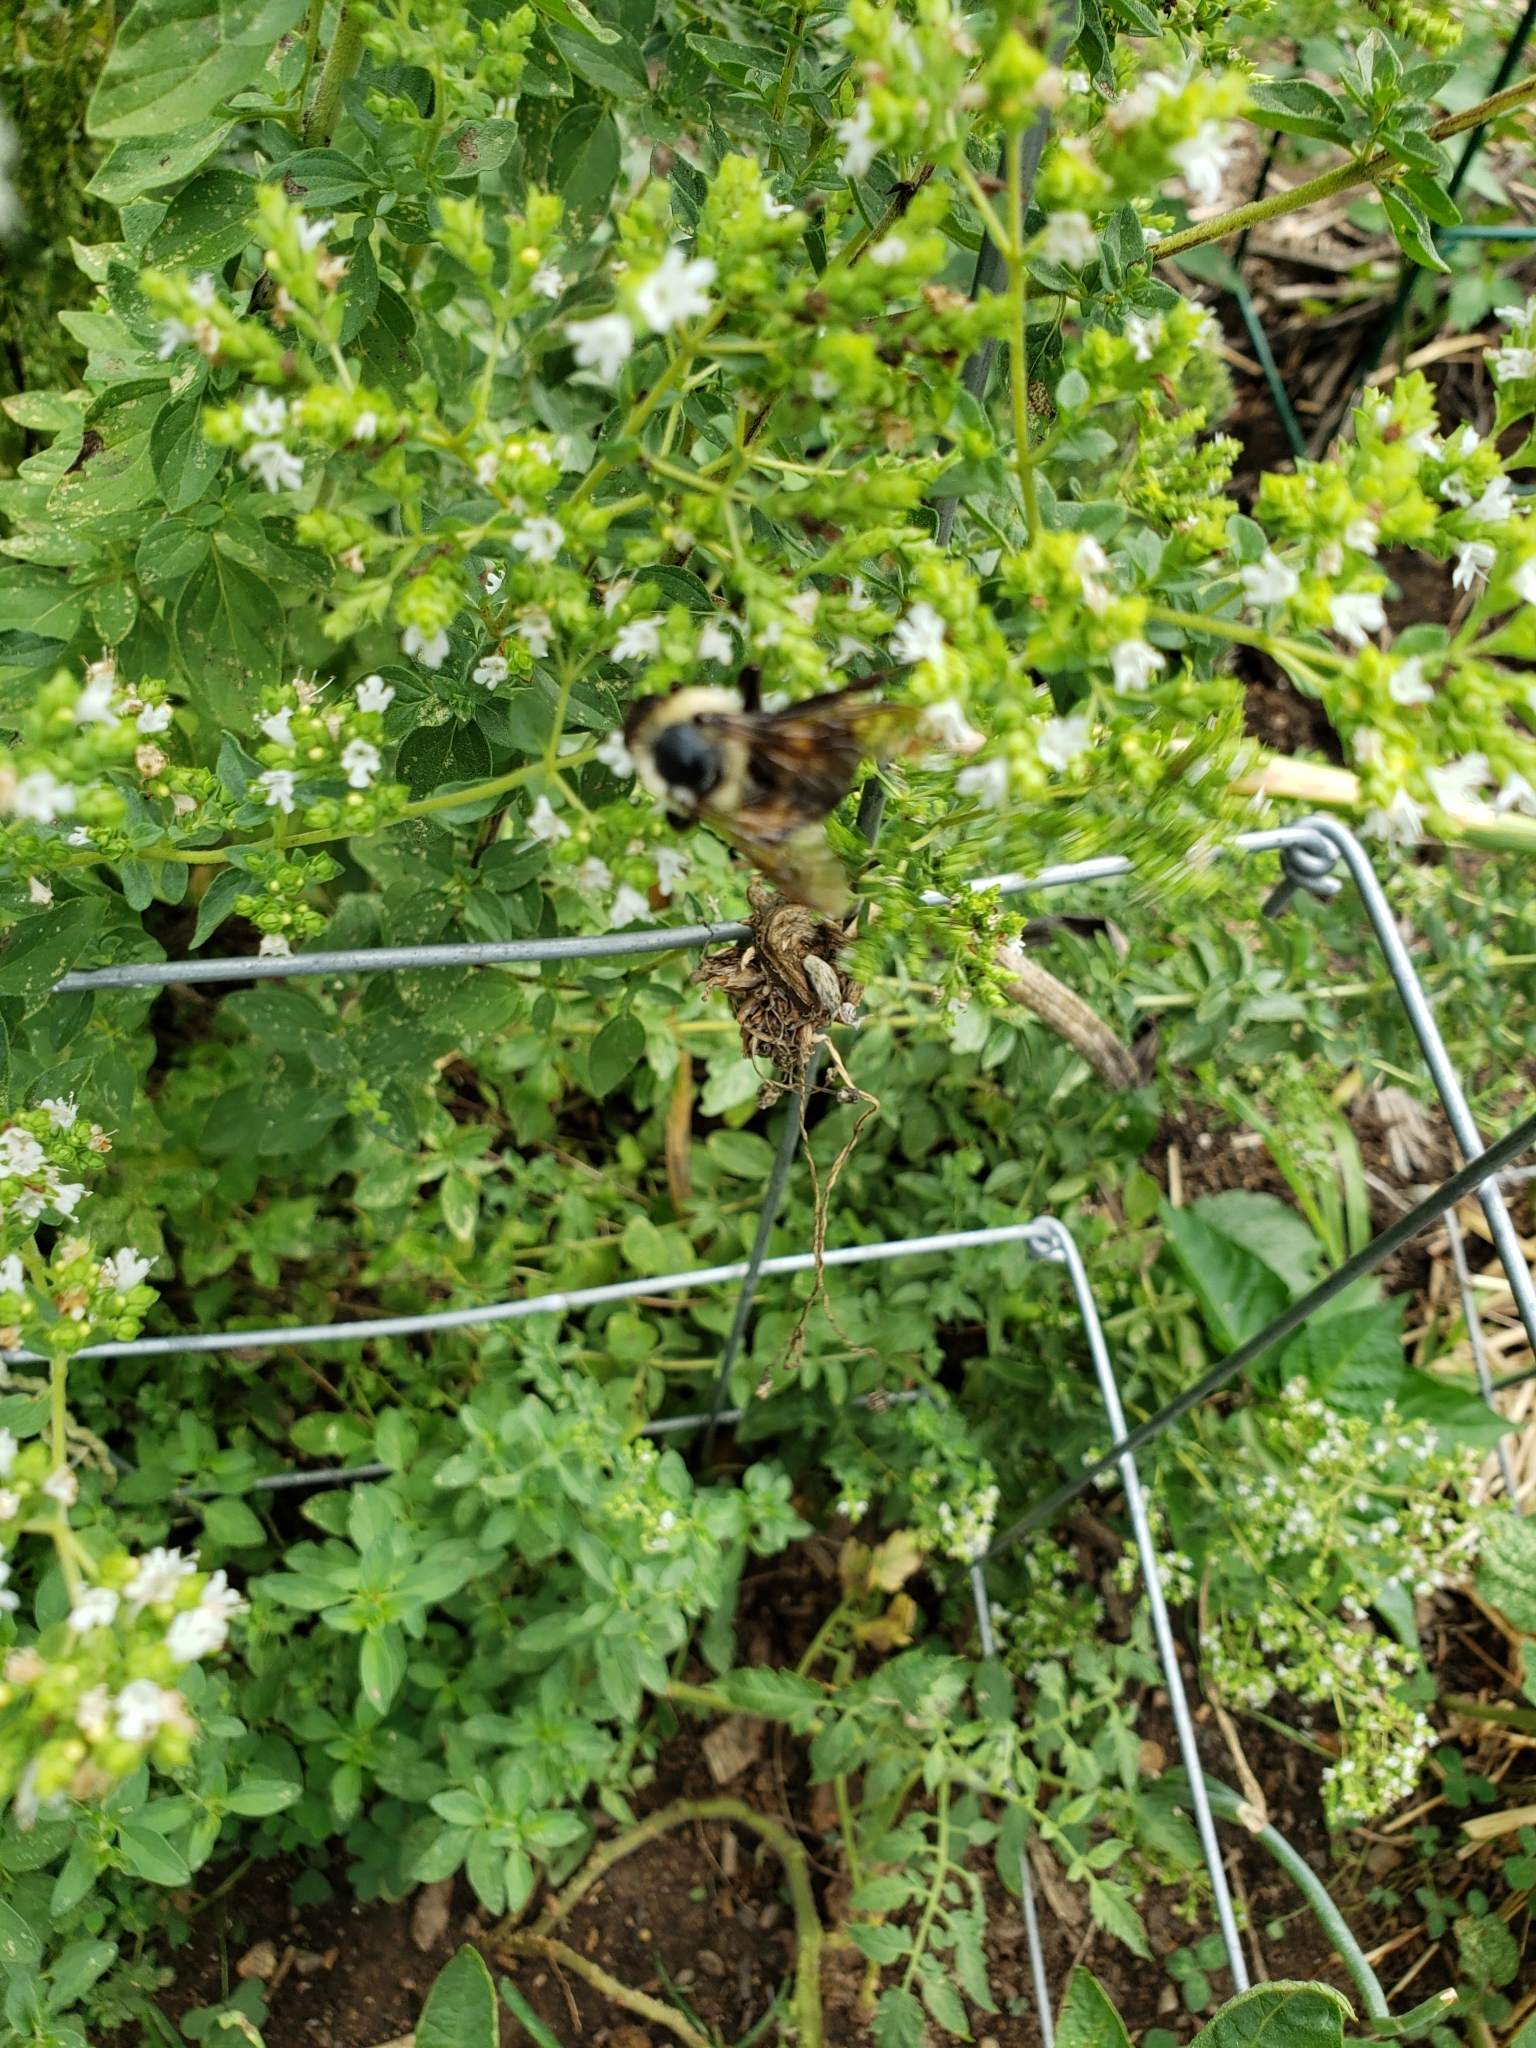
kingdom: Animalia
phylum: Arthropoda
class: Insecta
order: Hymenoptera
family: Apidae
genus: Bombus
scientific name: Bombus griseocollis
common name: Brown-belted bumble bee
